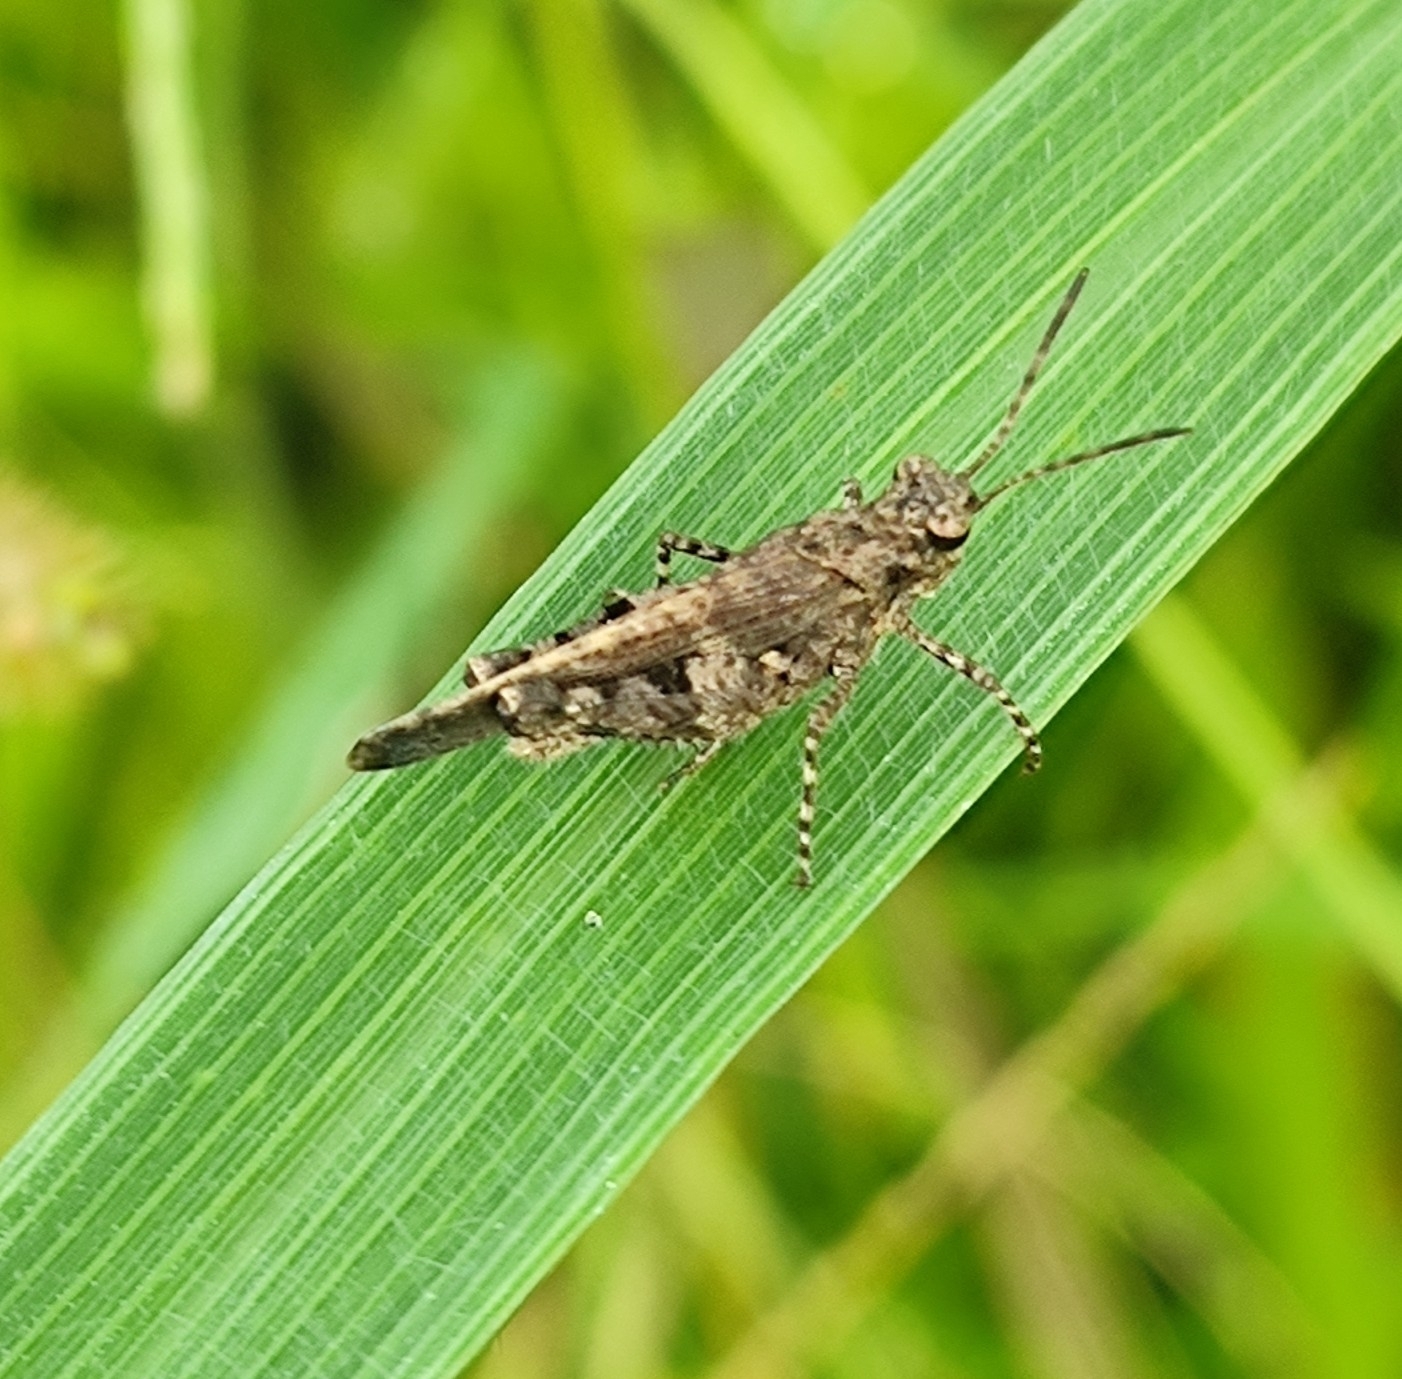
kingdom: Animalia
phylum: Arthropoda
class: Insecta
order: Orthoptera
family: Acrididae
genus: Trilophidia
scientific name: Trilophidia annulata
